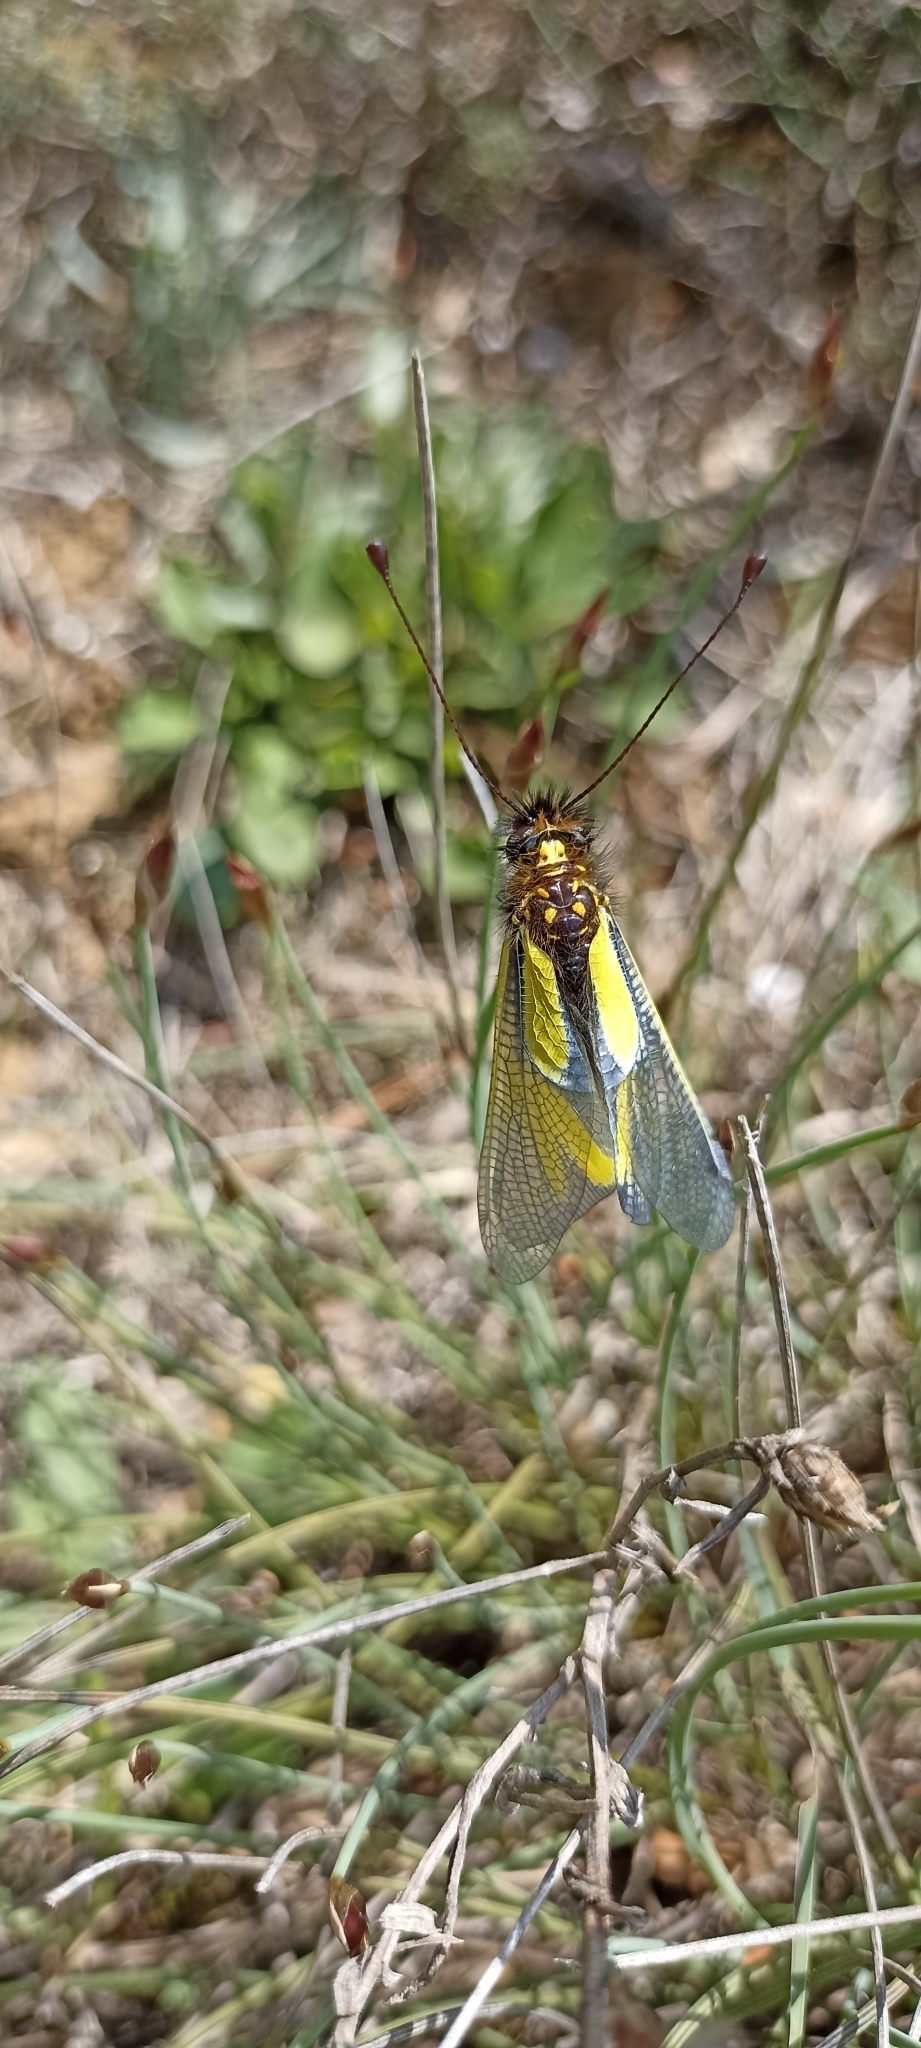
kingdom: Animalia
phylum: Arthropoda
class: Insecta
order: Neuroptera
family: Ascalaphidae
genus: Libelloides
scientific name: Libelloides coccajus
